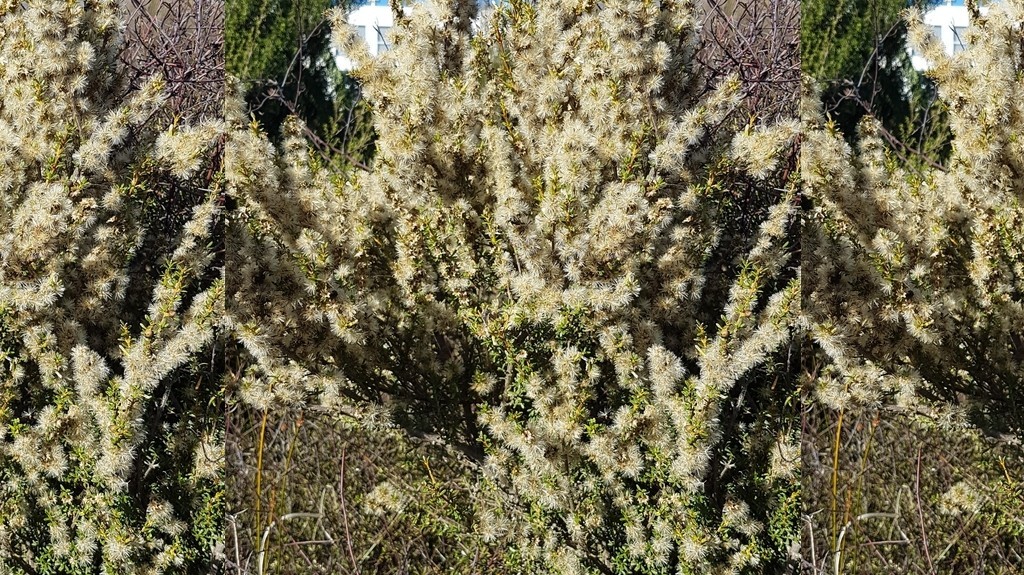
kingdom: Plantae
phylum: Tracheophyta
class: Magnoliopsida
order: Asterales
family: Asteraceae
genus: Olearia
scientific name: Olearia solandri
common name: Coastal daisybush
